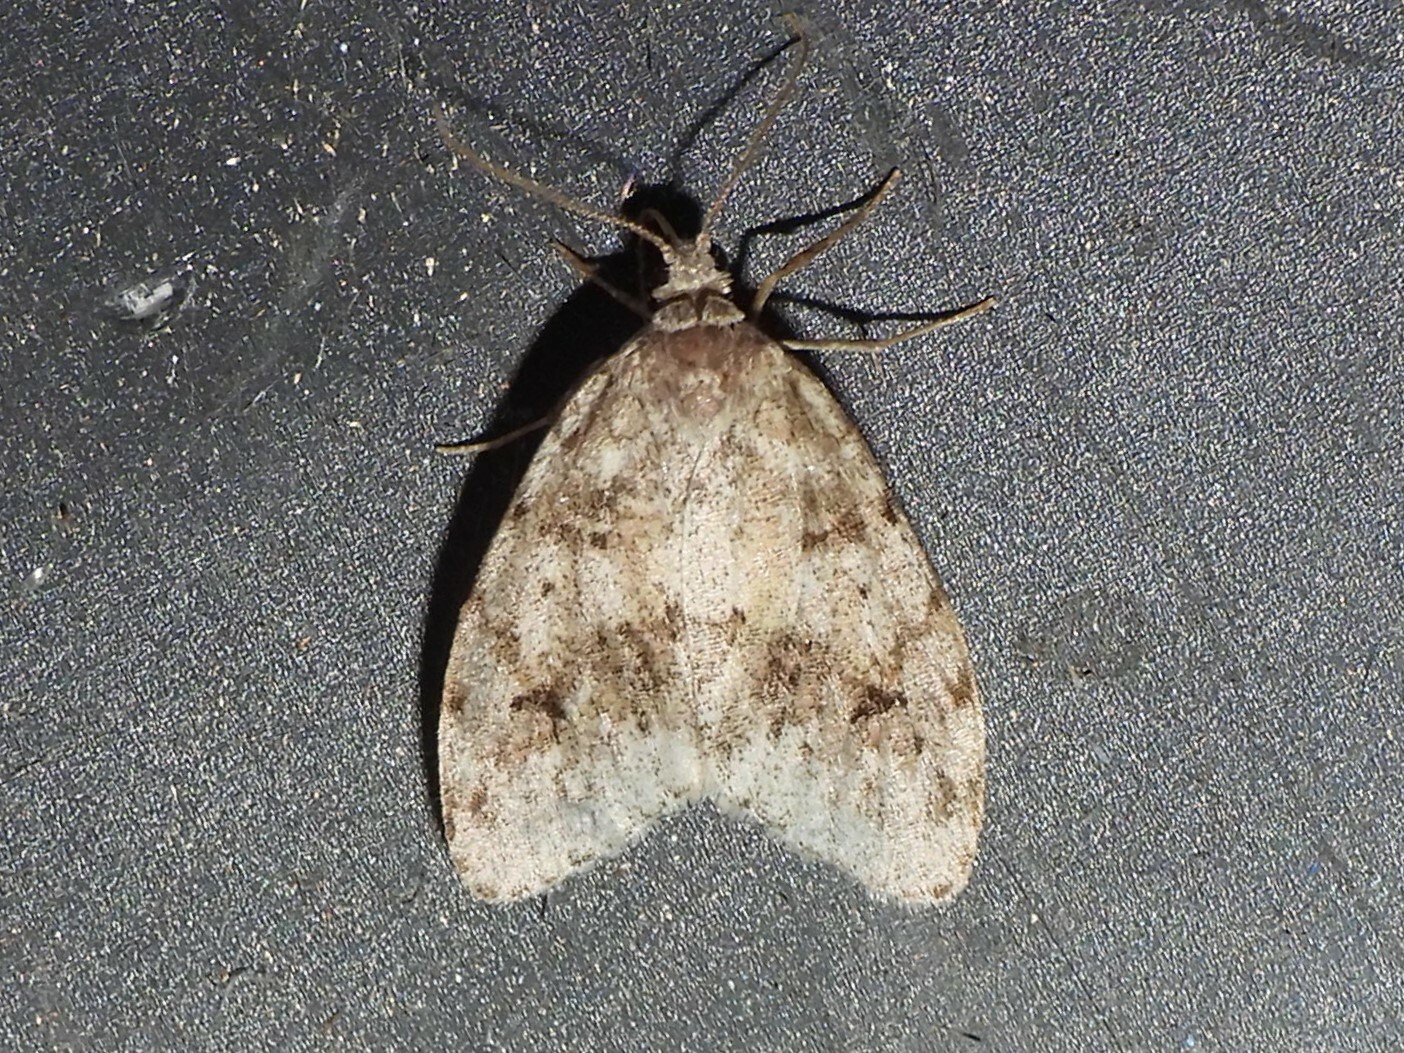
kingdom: Animalia
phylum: Arthropoda
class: Insecta
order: Lepidoptera
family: Erebidae
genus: Clemensia
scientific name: Clemensia albata
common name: Little white lichen moth
